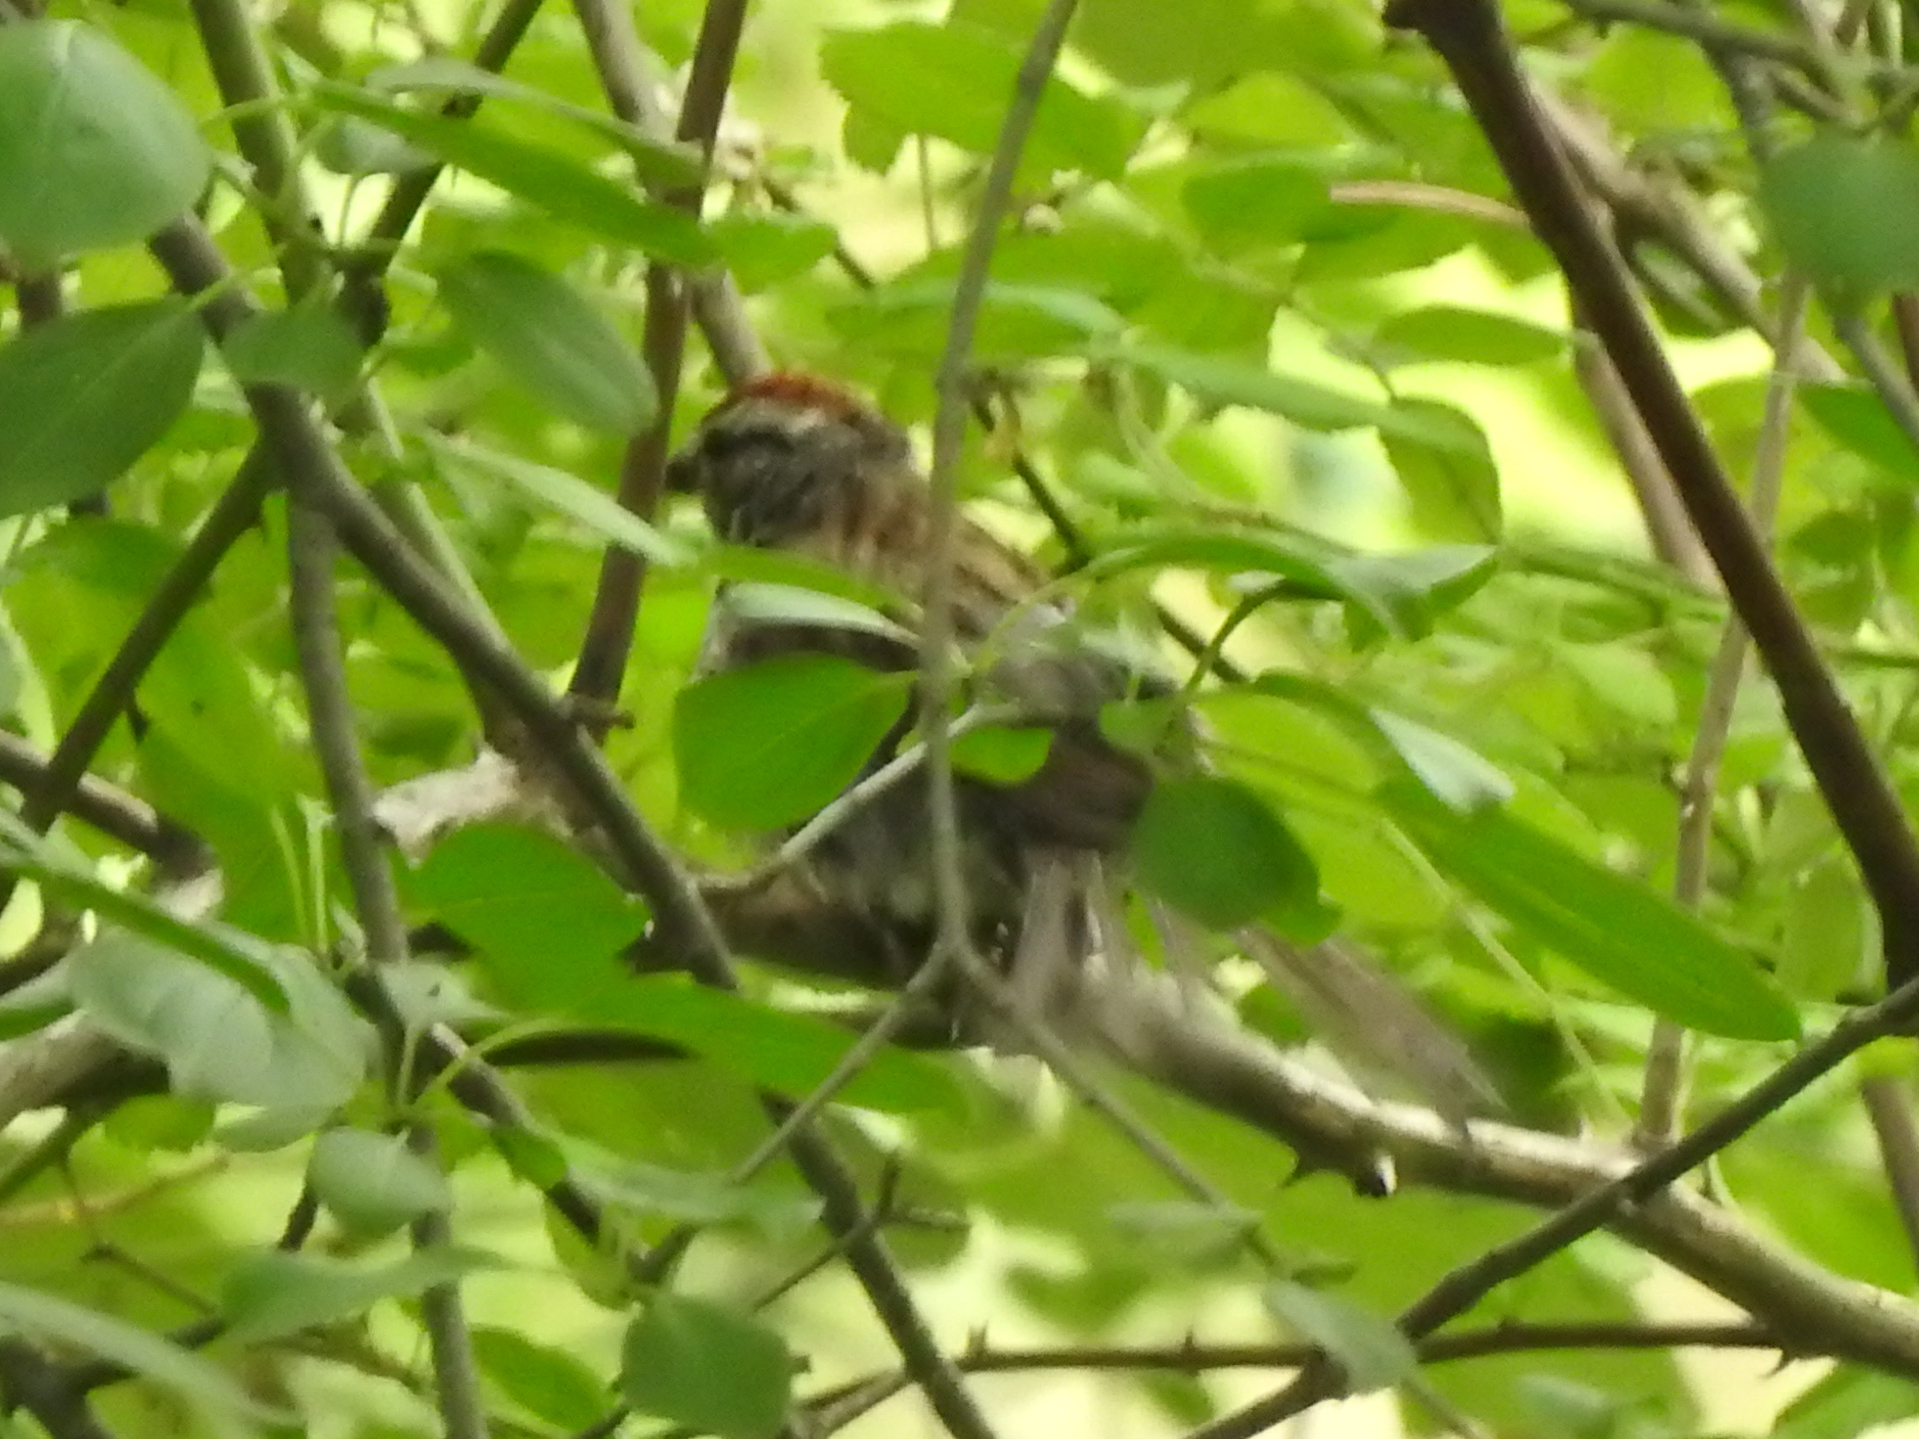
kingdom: Animalia
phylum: Chordata
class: Aves
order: Passeriformes
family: Passerellidae
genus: Spizella
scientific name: Spizella passerina
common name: Chipping sparrow
